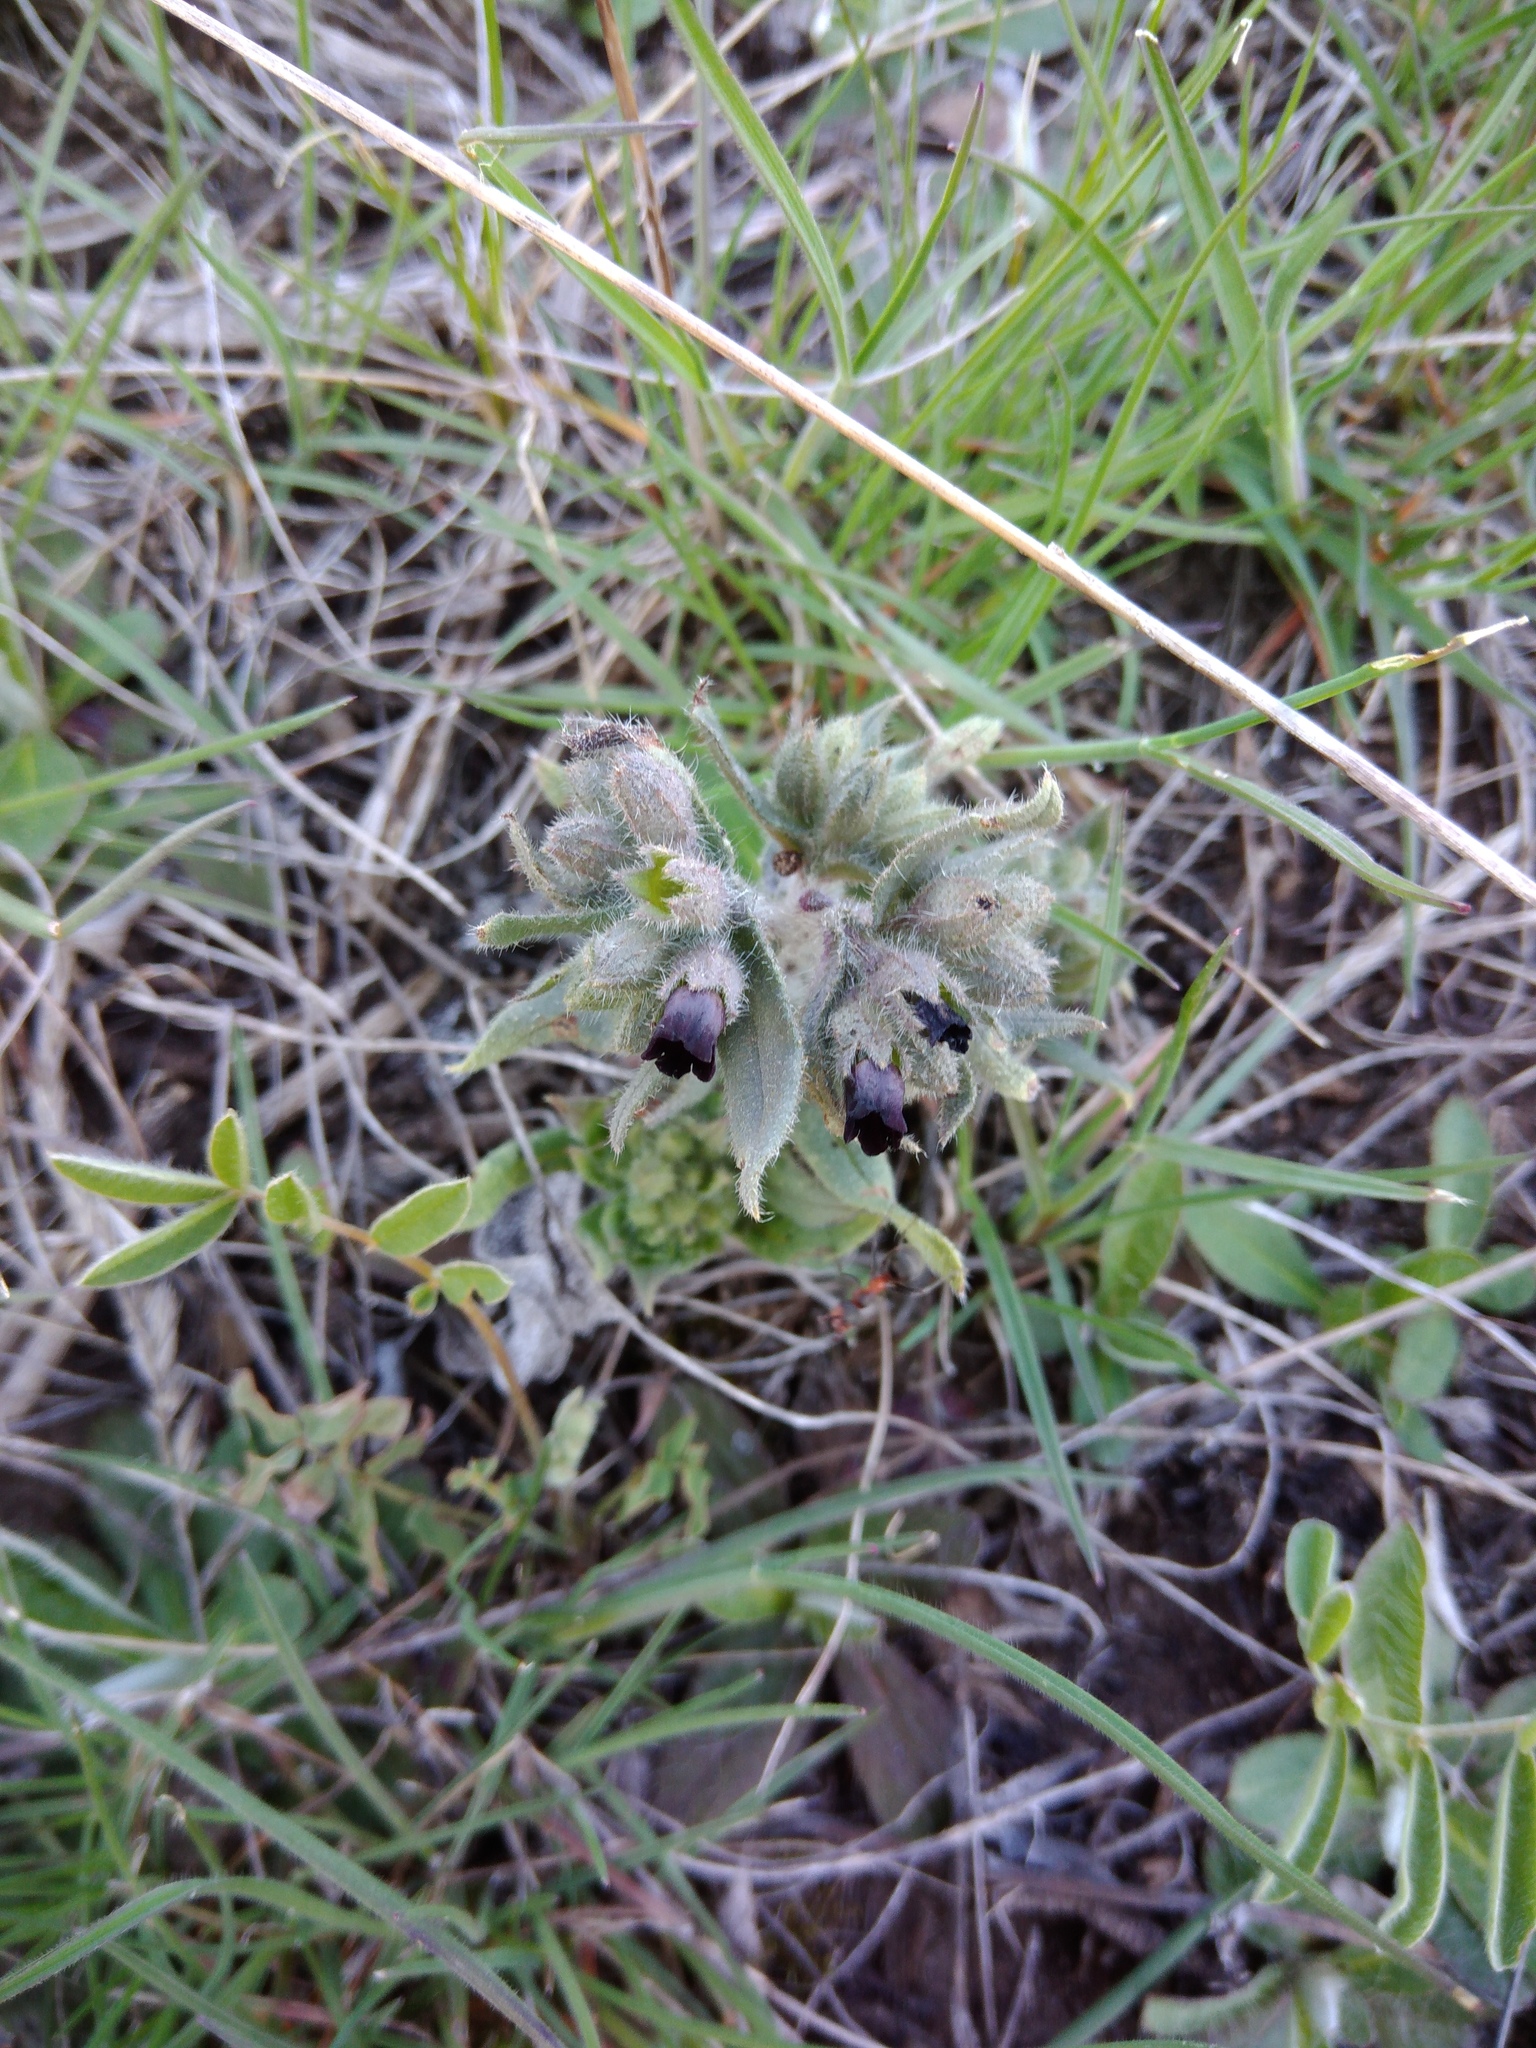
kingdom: Plantae
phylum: Tracheophyta
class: Magnoliopsida
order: Boraginales
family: Boraginaceae
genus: Nonea
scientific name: Nonea pulla
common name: Brown nonea
